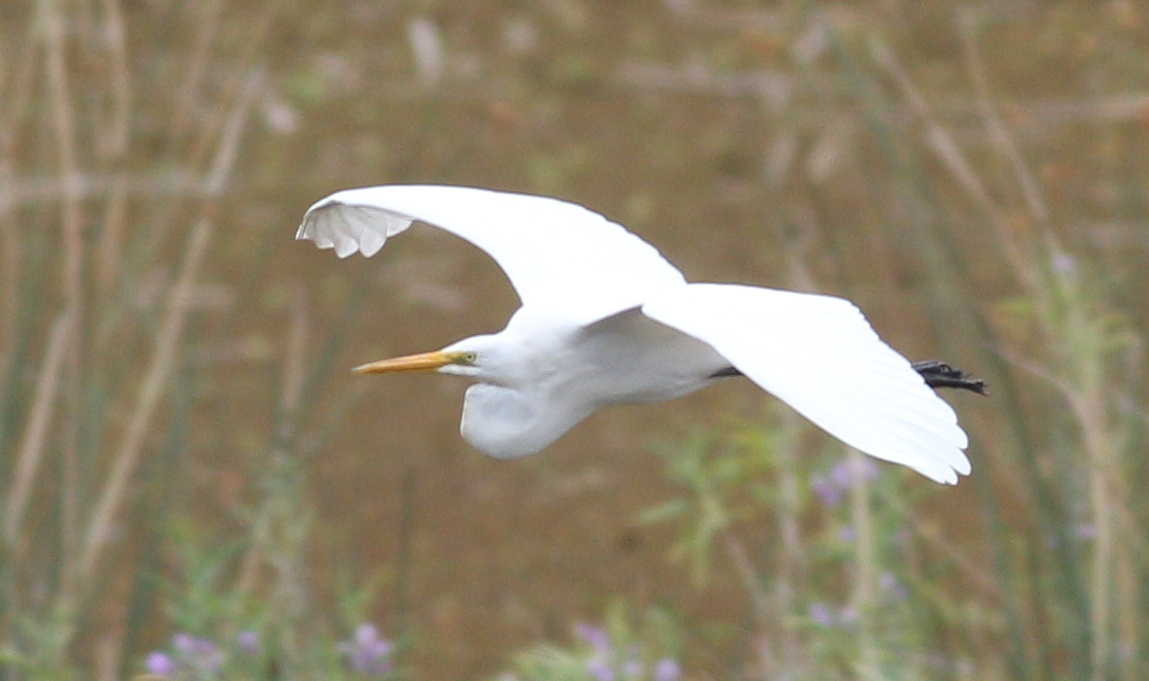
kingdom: Animalia
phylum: Chordata
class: Aves
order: Pelecaniformes
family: Ardeidae
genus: Ardea
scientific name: Ardea alba
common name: Great egret
